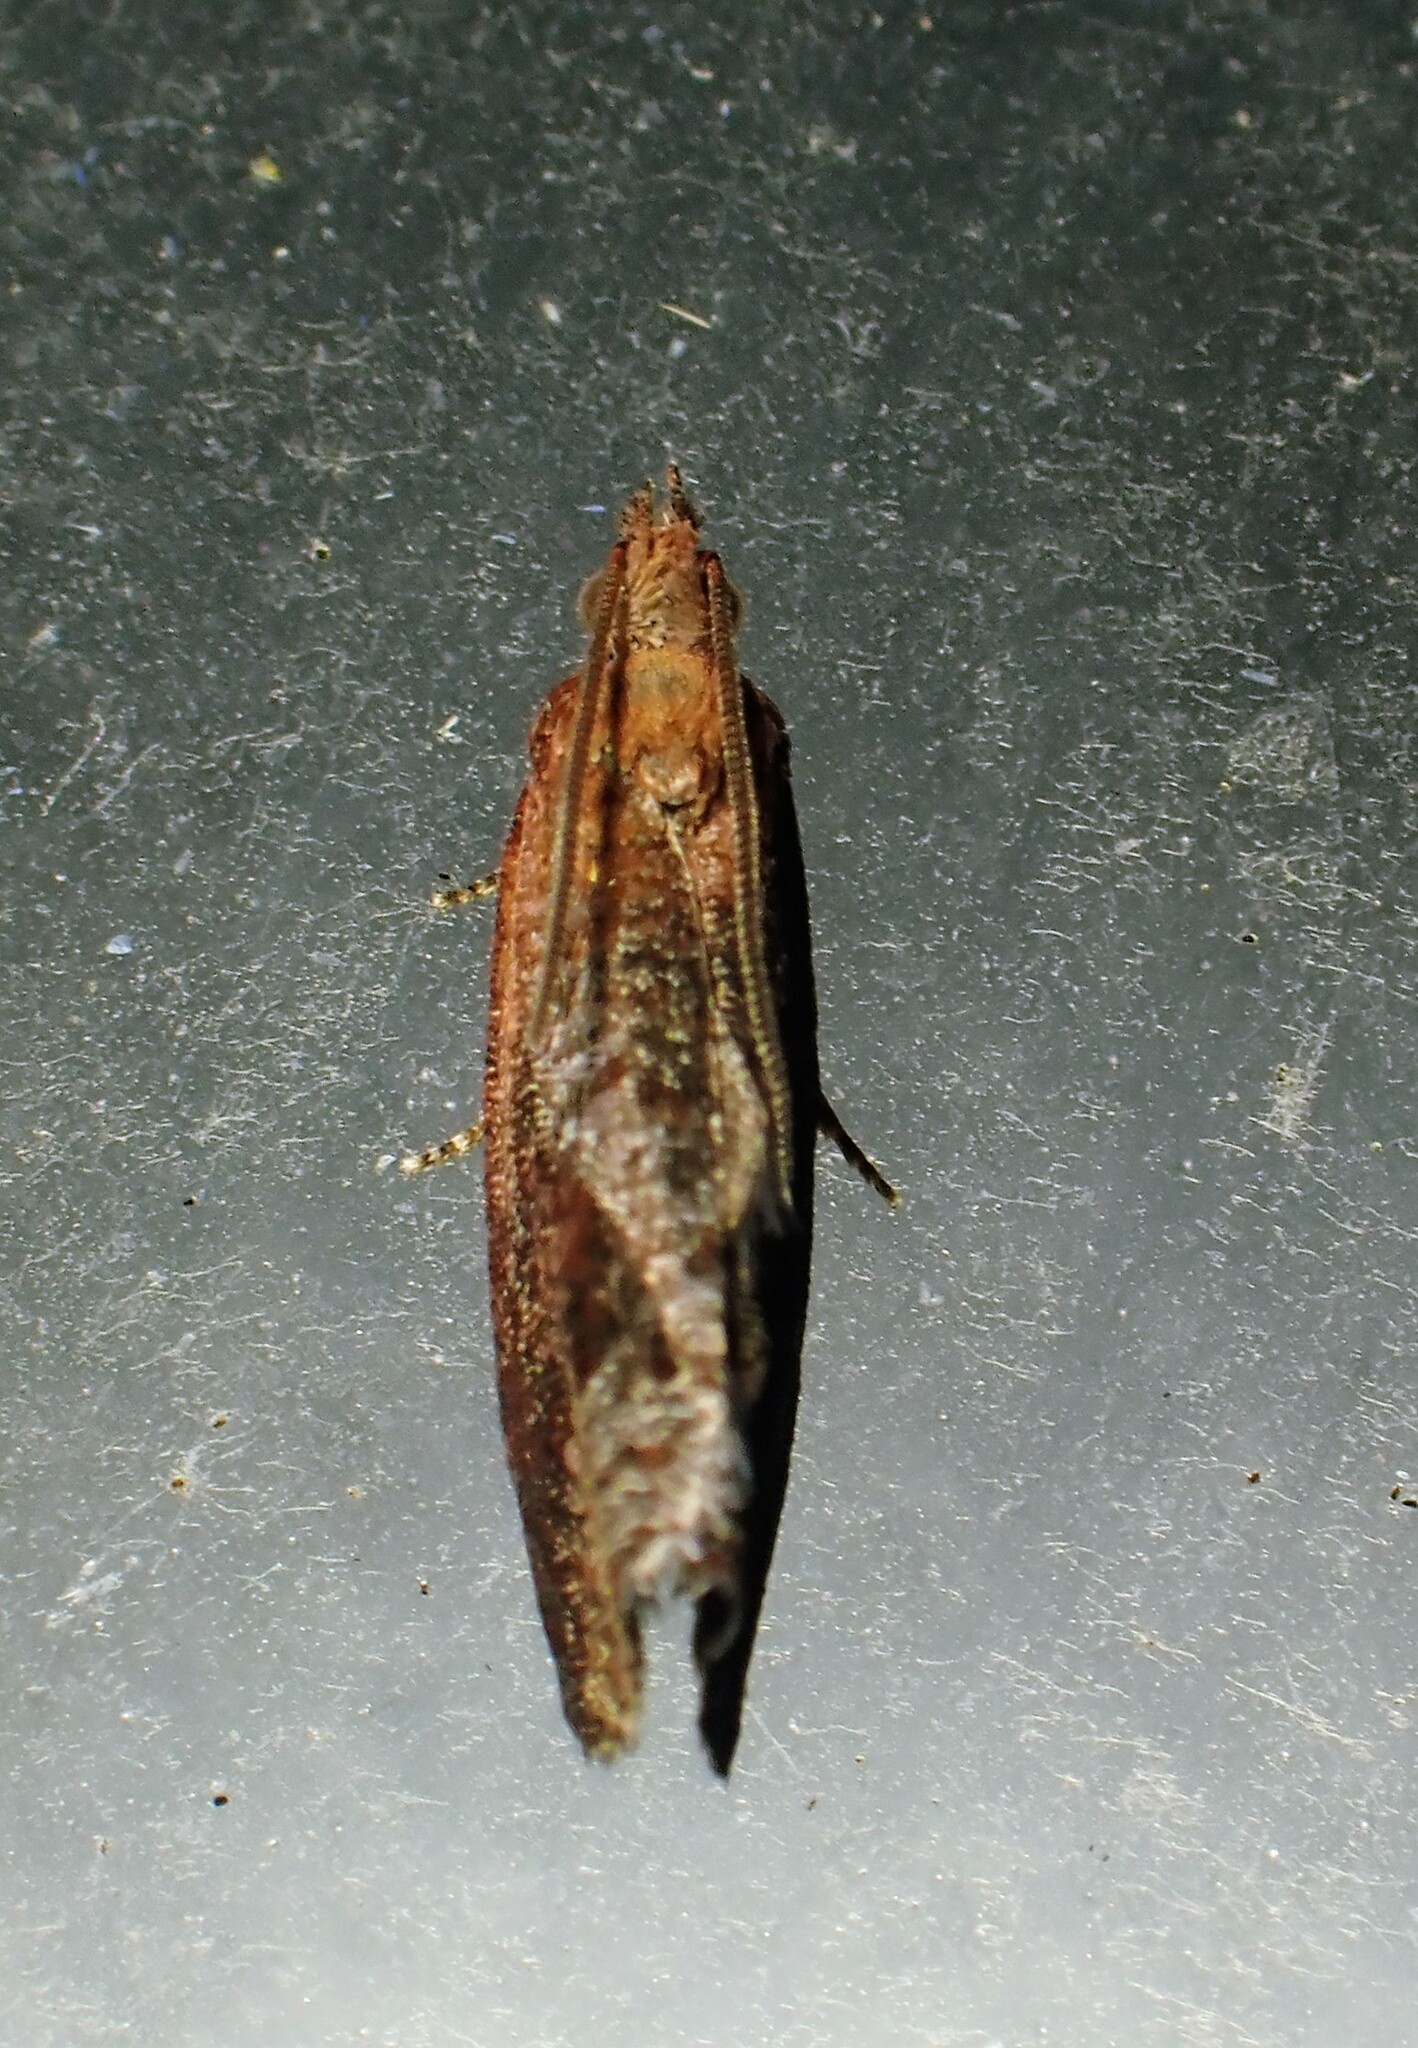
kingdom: Animalia
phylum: Arthropoda
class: Insecta
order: Lepidoptera
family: Tortricidae
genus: Epinotia
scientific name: Epinotia septemberana
